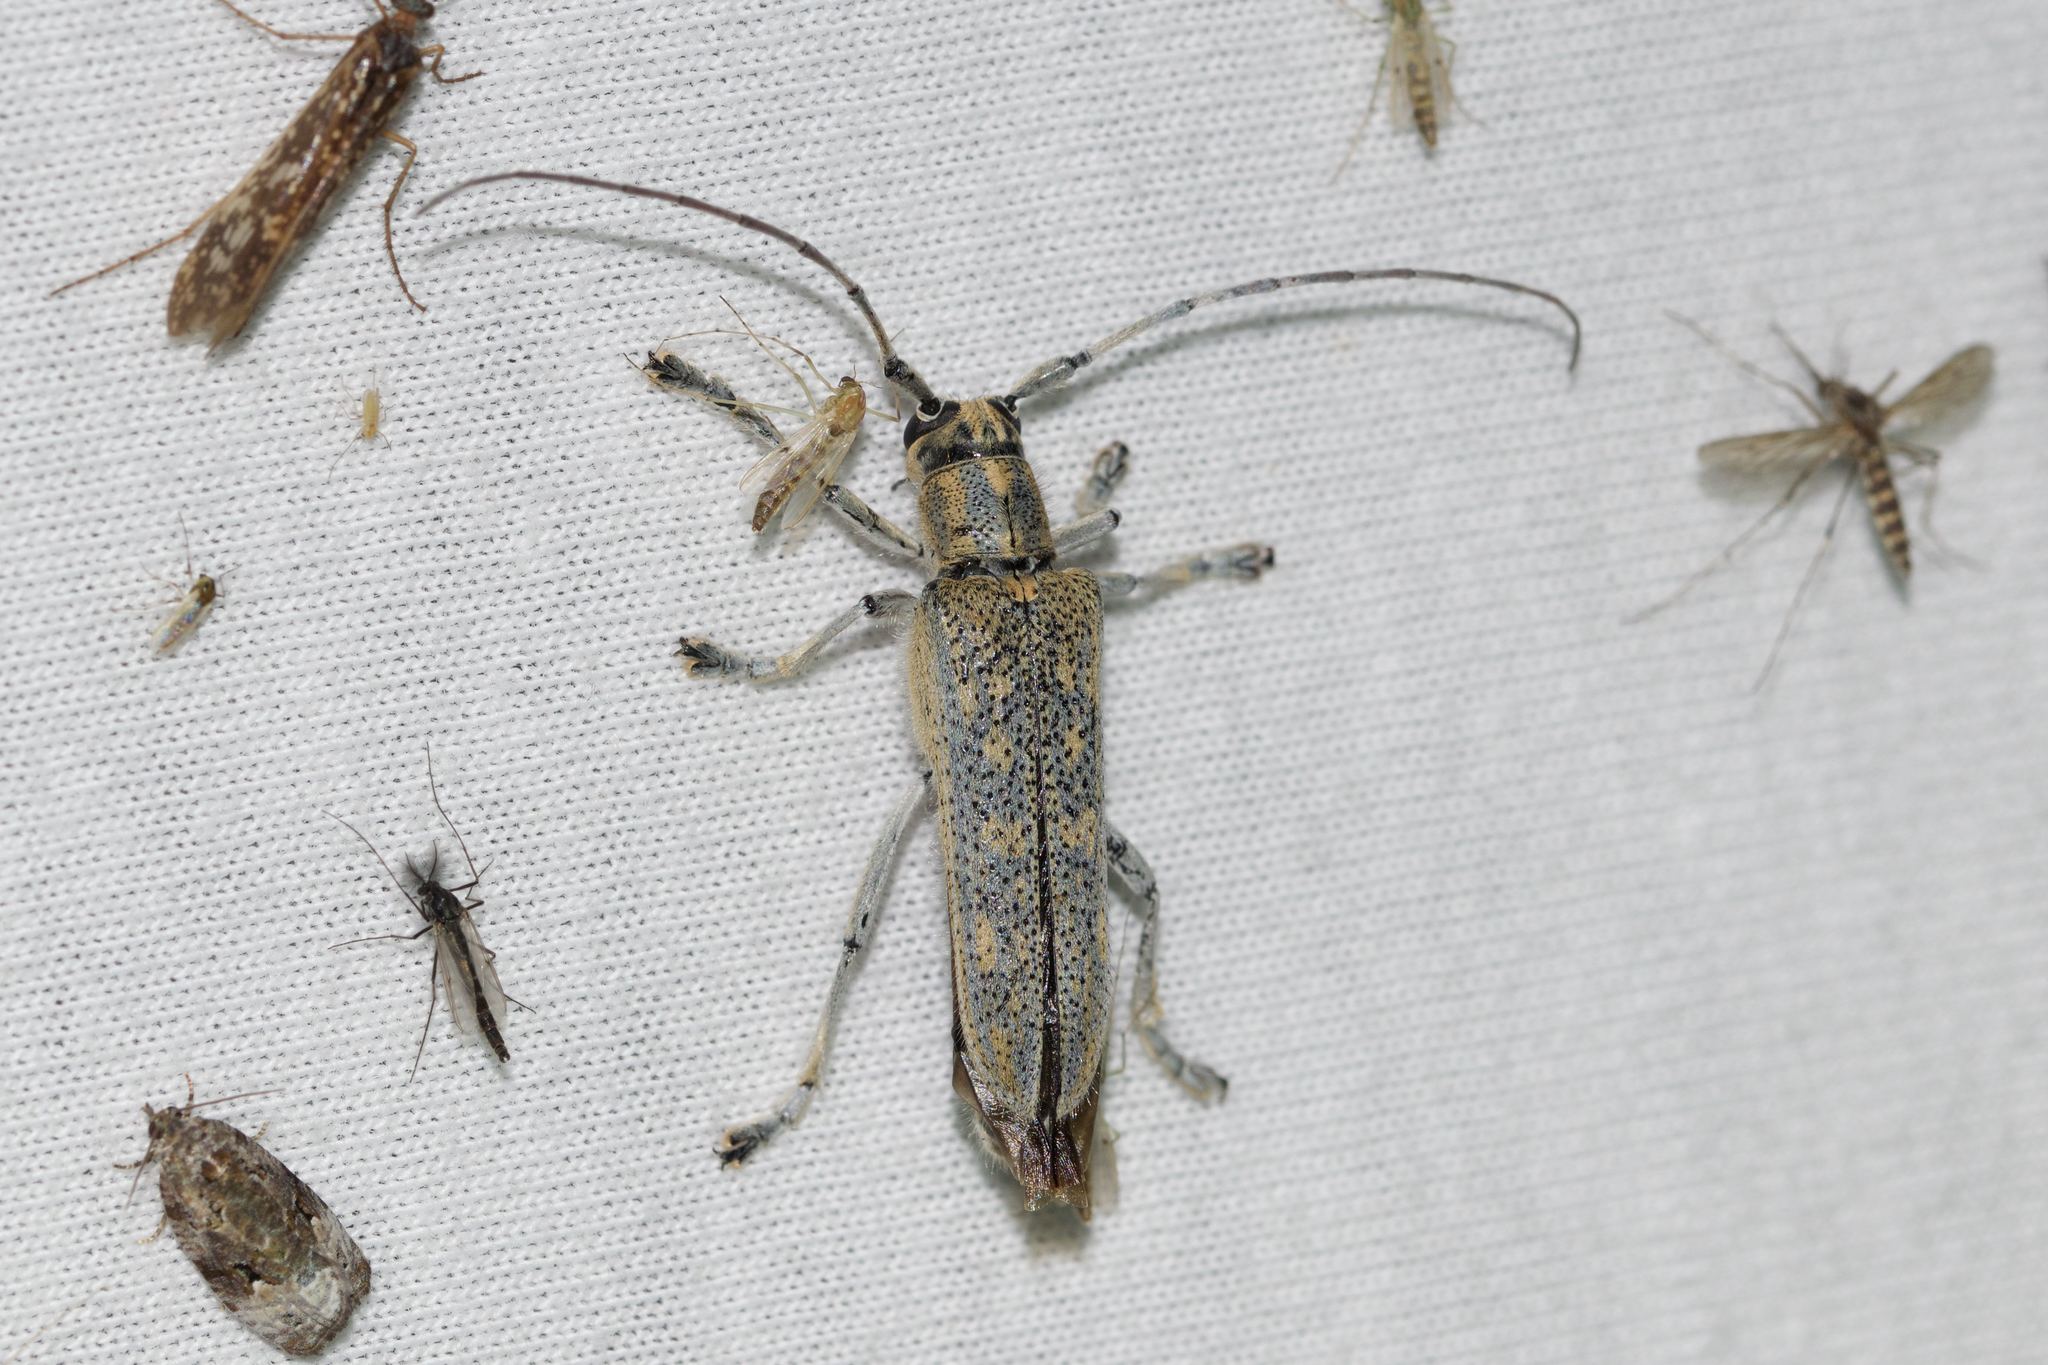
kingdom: Animalia
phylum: Arthropoda
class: Insecta
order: Coleoptera
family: Cerambycidae
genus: Saperda
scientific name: Saperda calcarata
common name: Poplar borer
